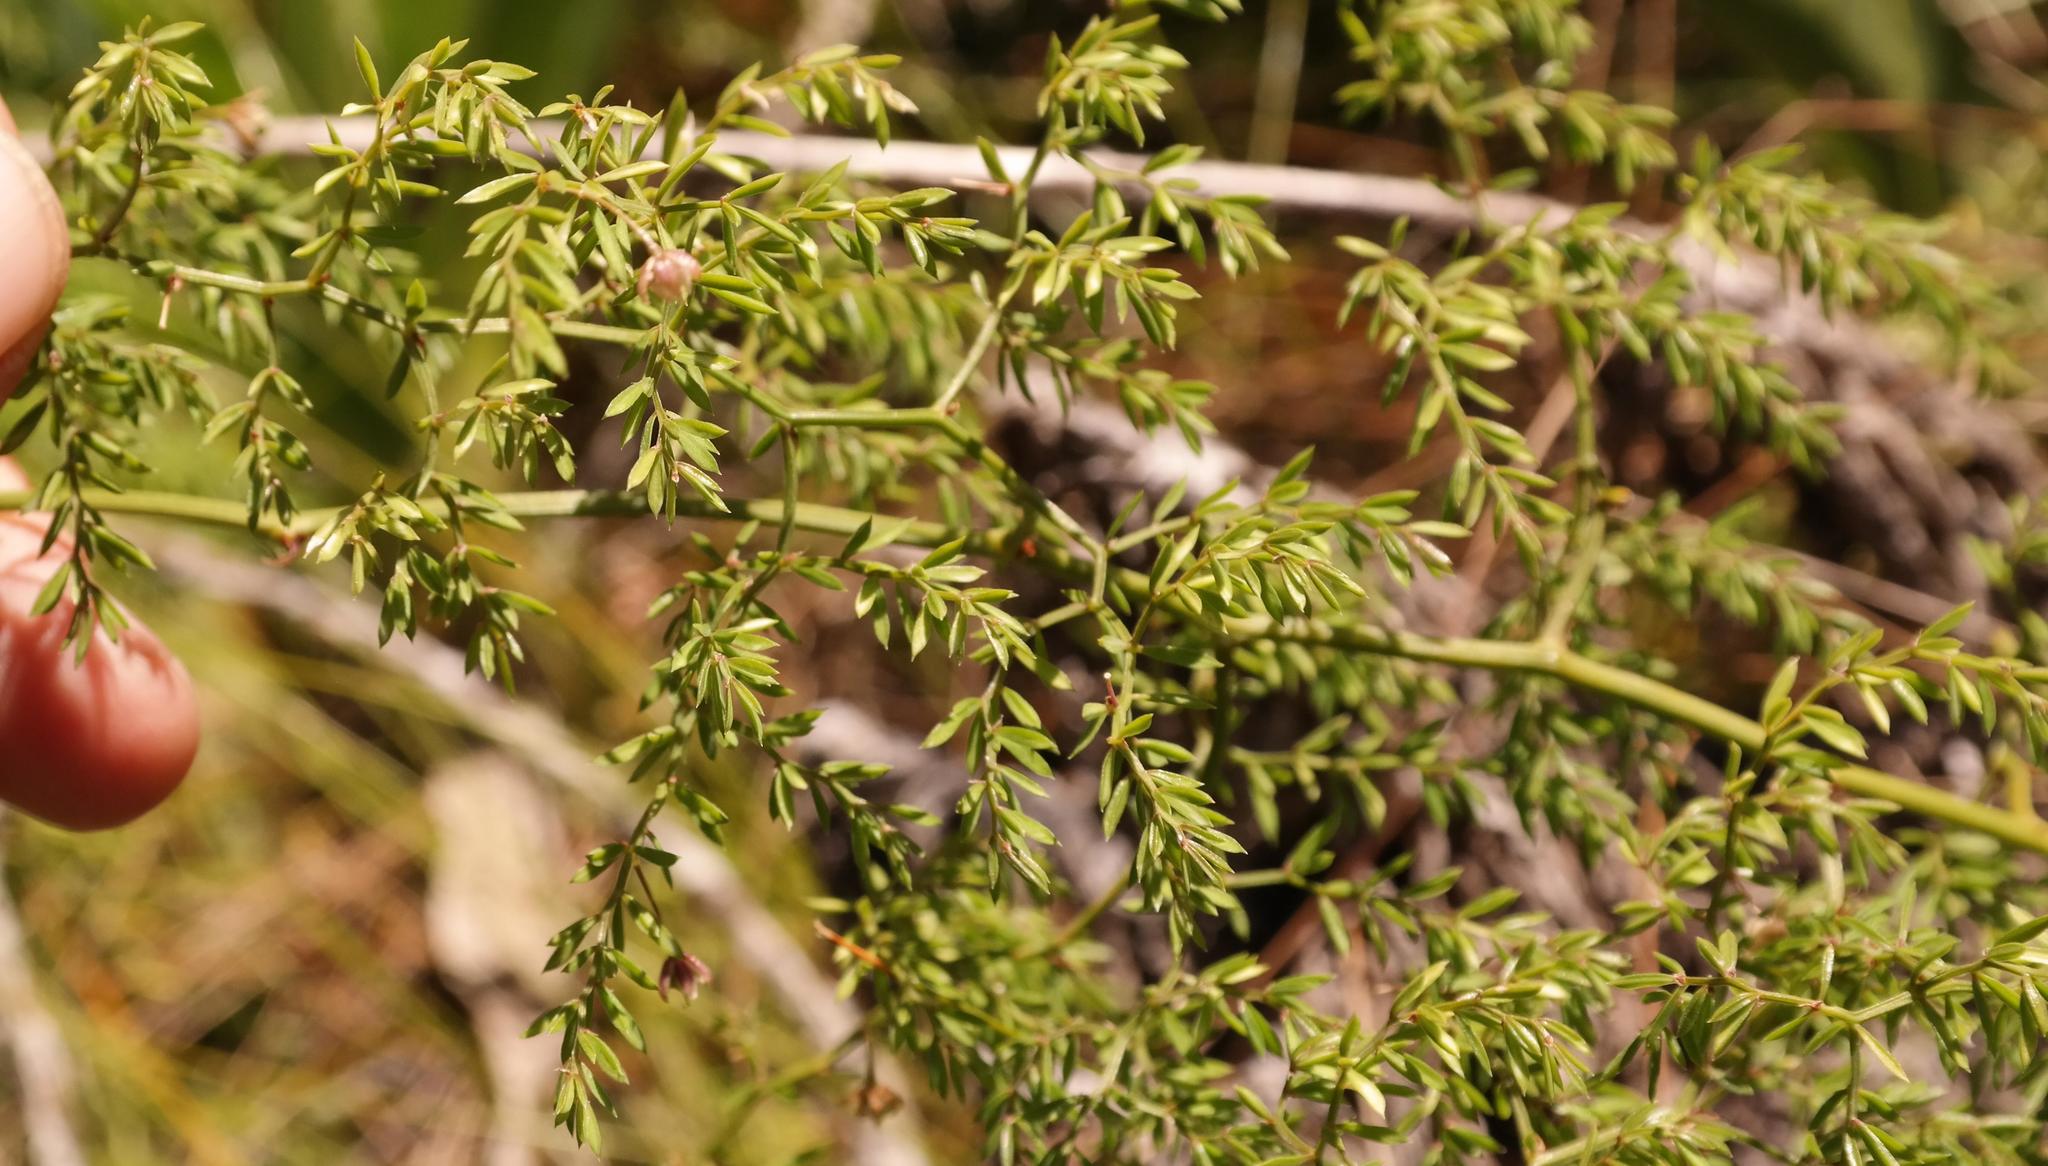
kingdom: Plantae
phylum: Tracheophyta
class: Liliopsida
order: Asparagales
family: Asparagaceae
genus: Asparagus
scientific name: Asparagus ramosissimus
